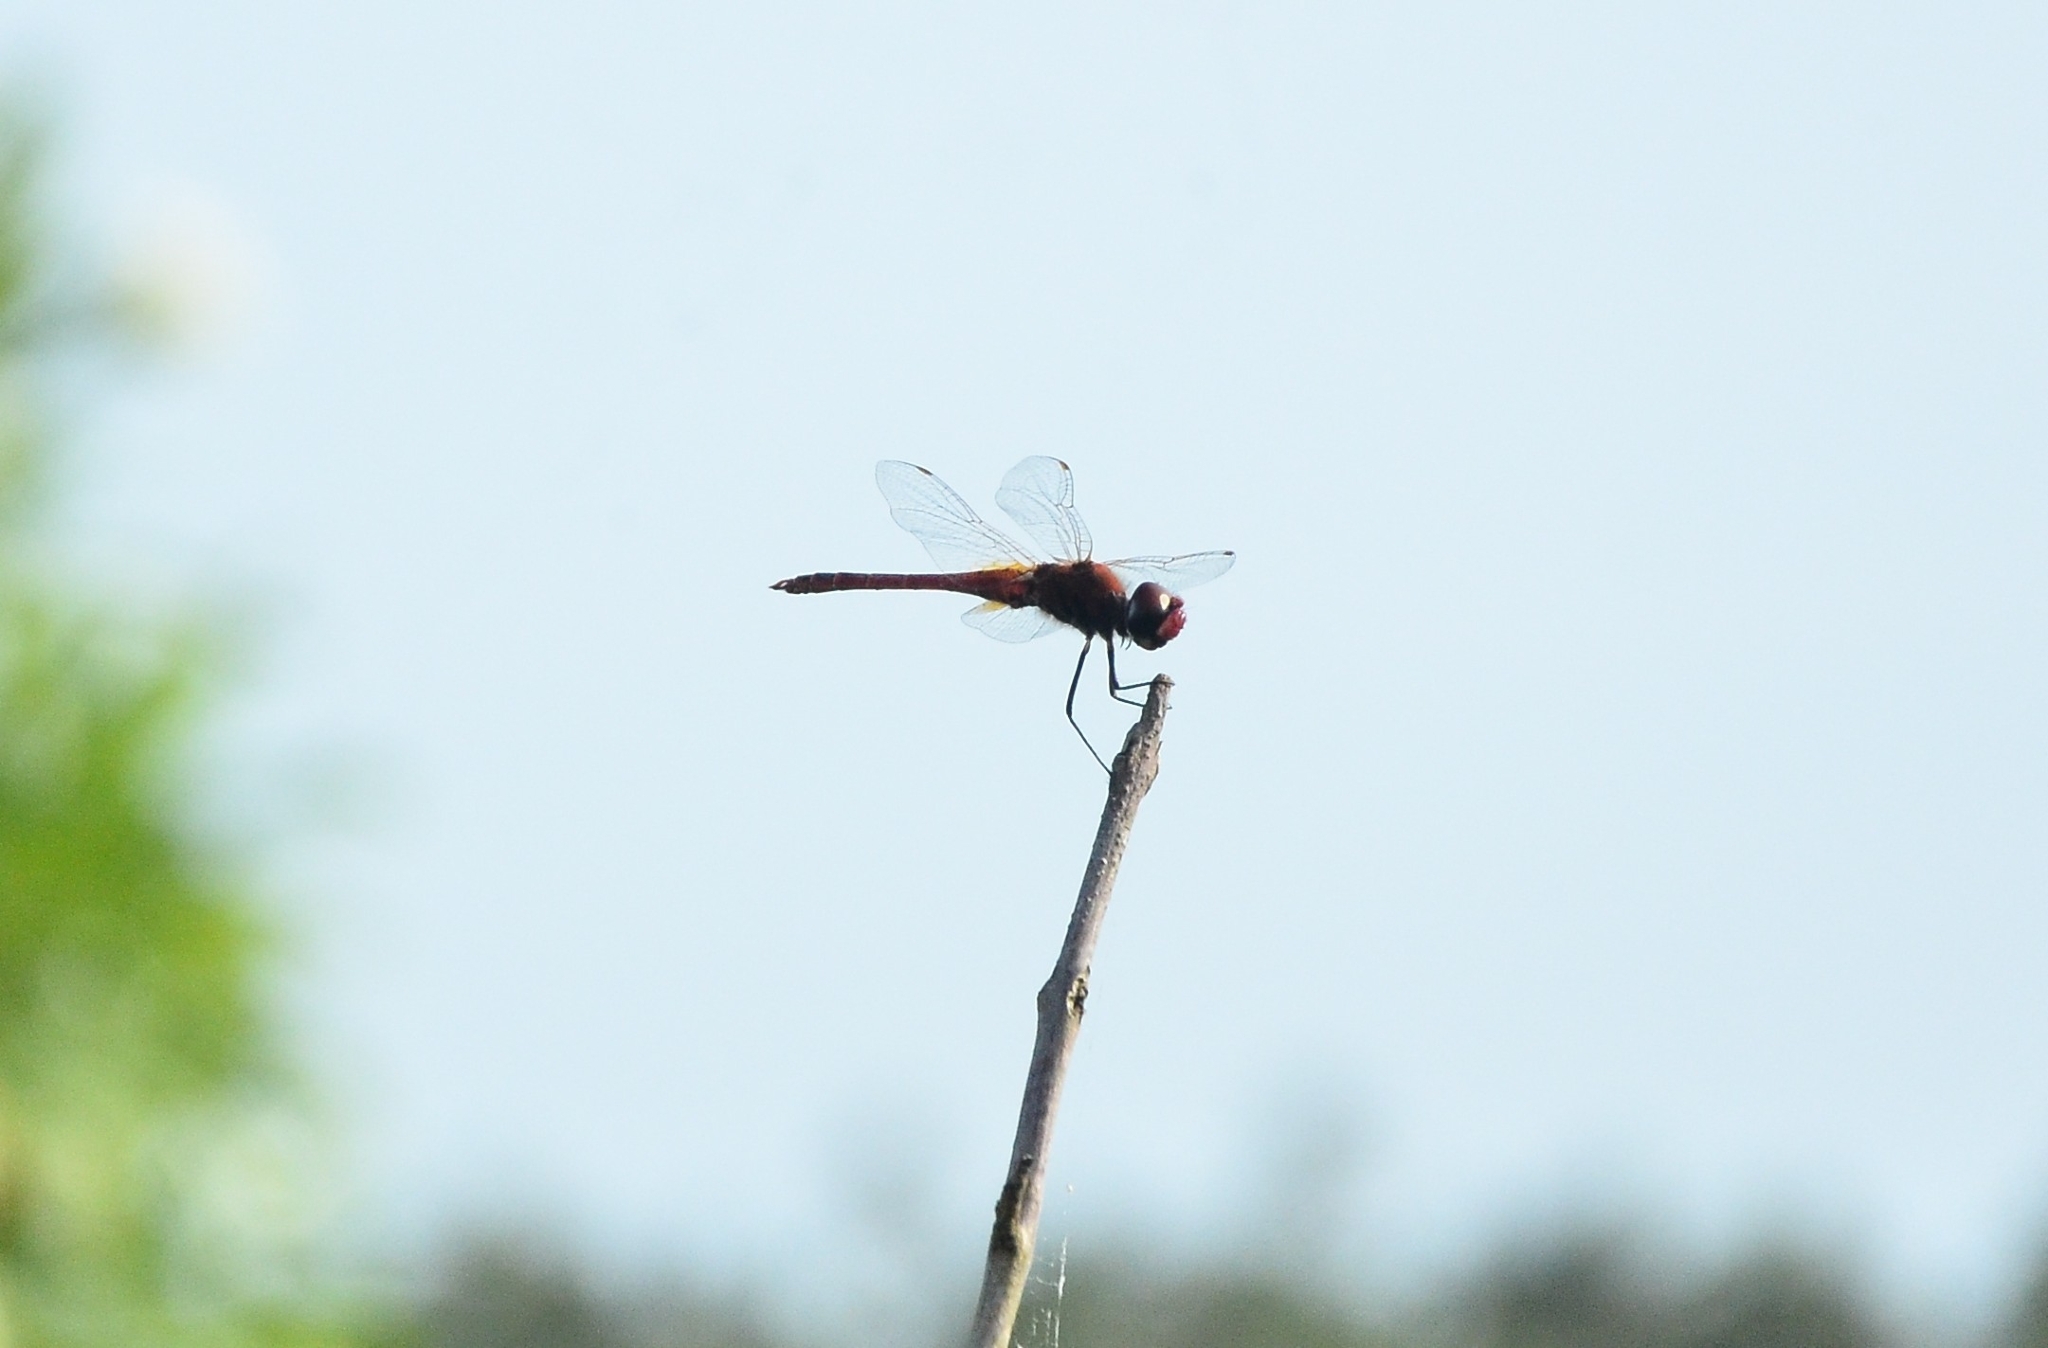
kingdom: Animalia
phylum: Arthropoda
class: Insecta
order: Odonata
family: Libellulidae
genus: Macrodiplax
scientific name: Macrodiplax cora
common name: Coastal glider
